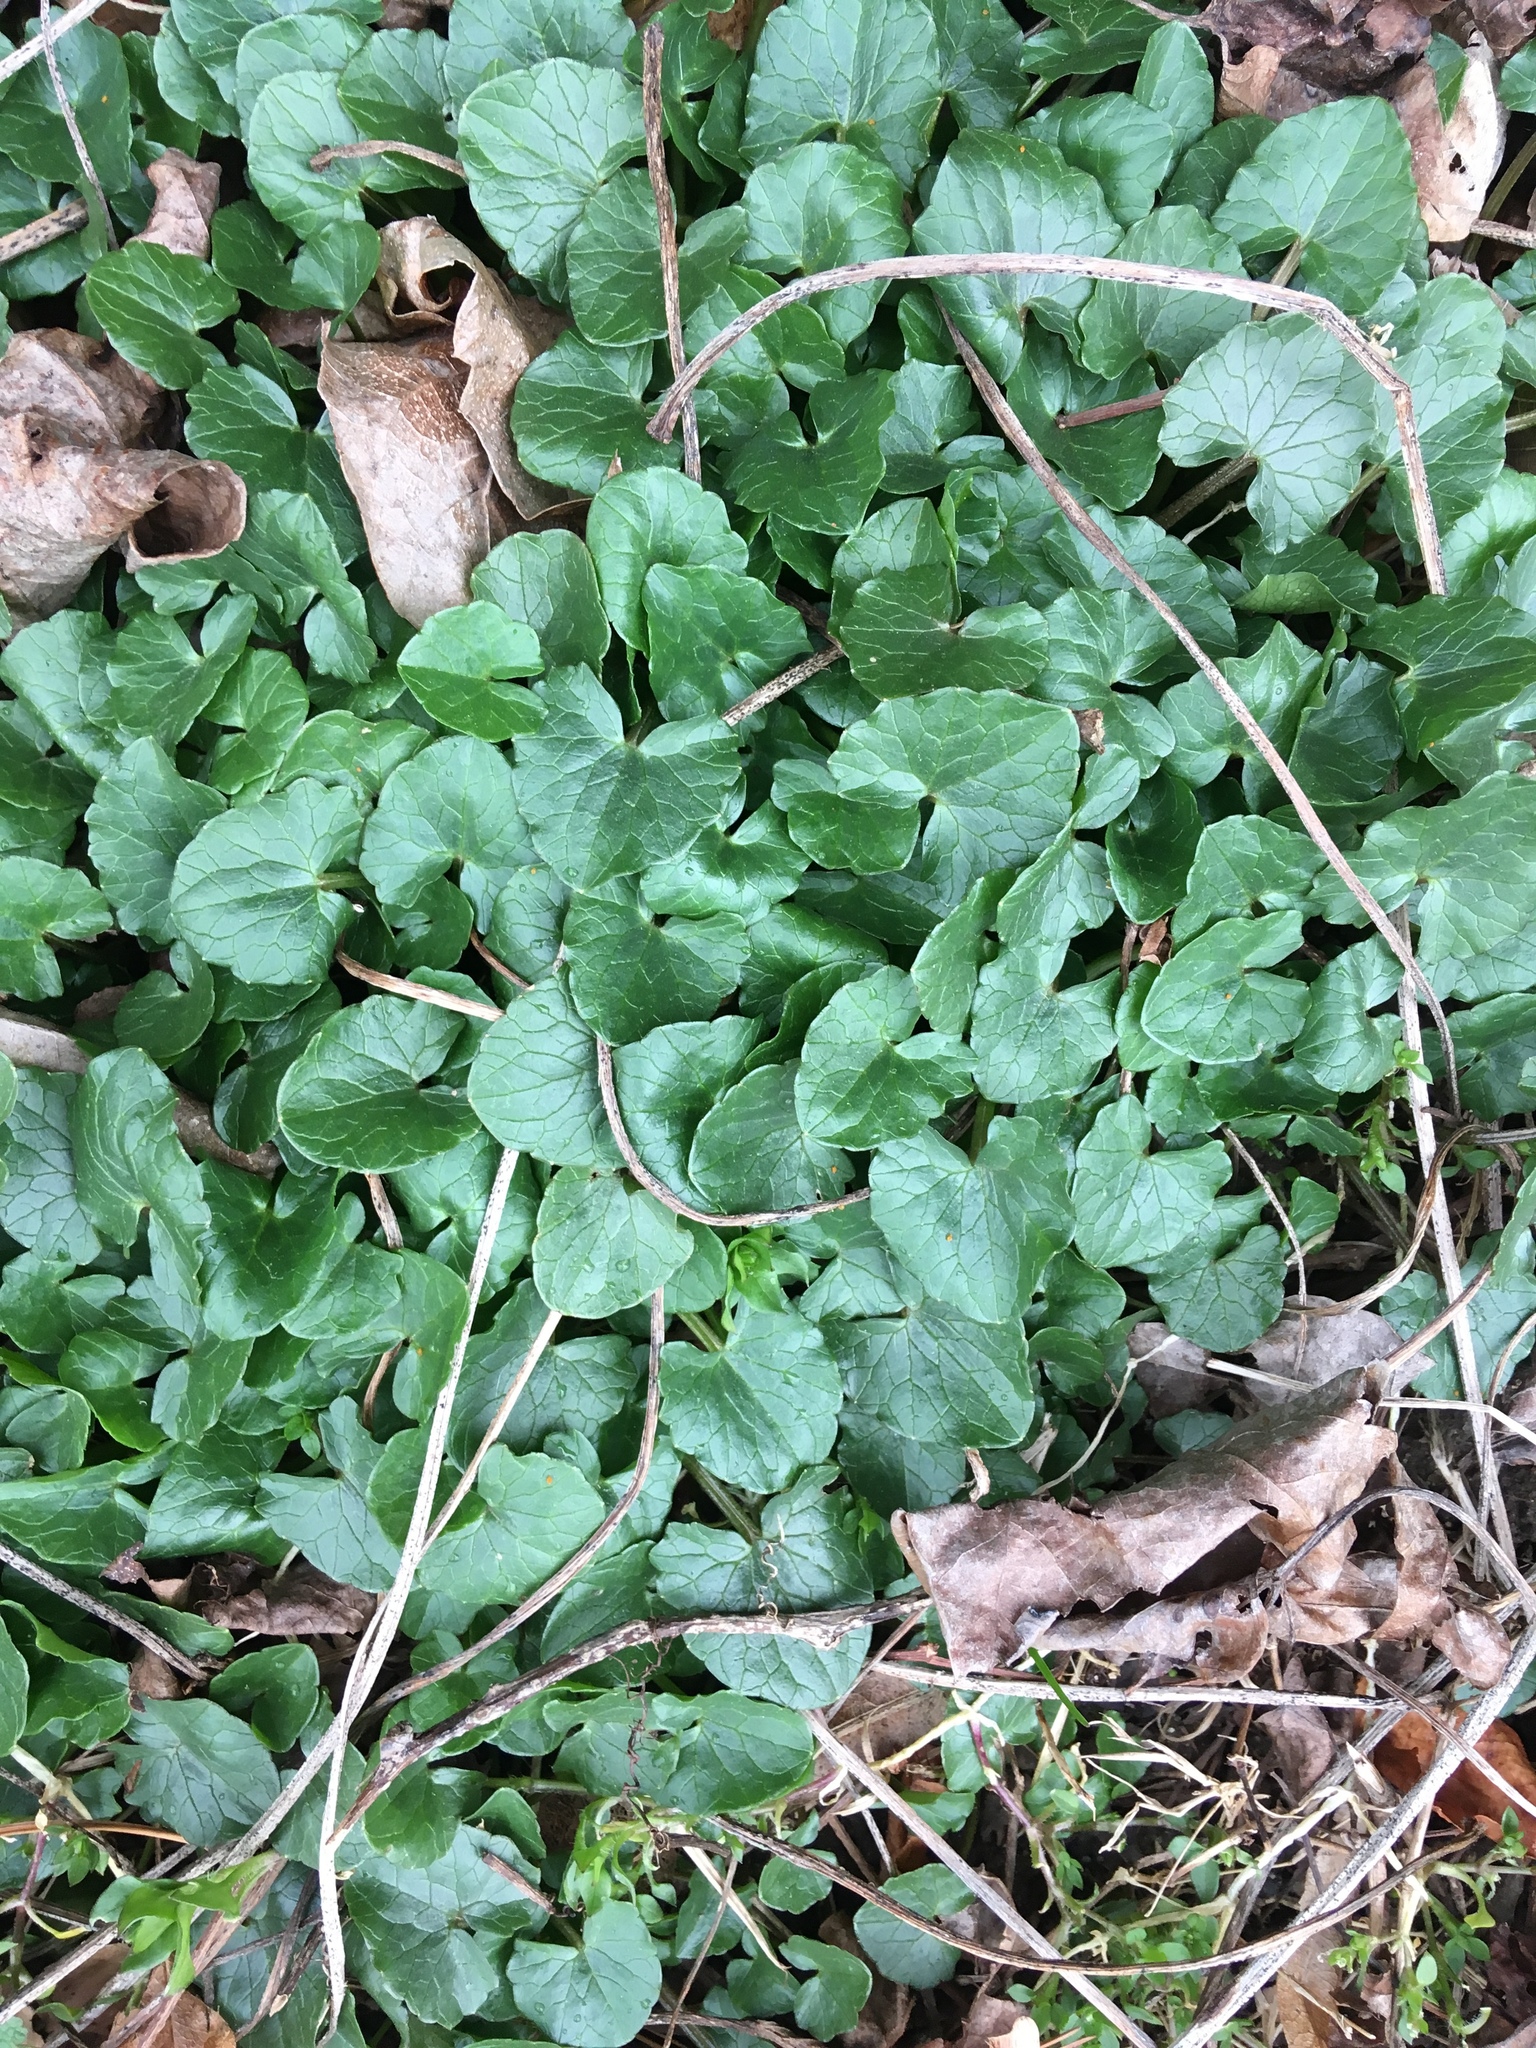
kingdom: Plantae
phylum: Tracheophyta
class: Magnoliopsida
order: Ranunculales
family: Ranunculaceae
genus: Ficaria
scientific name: Ficaria verna
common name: Lesser celandine
